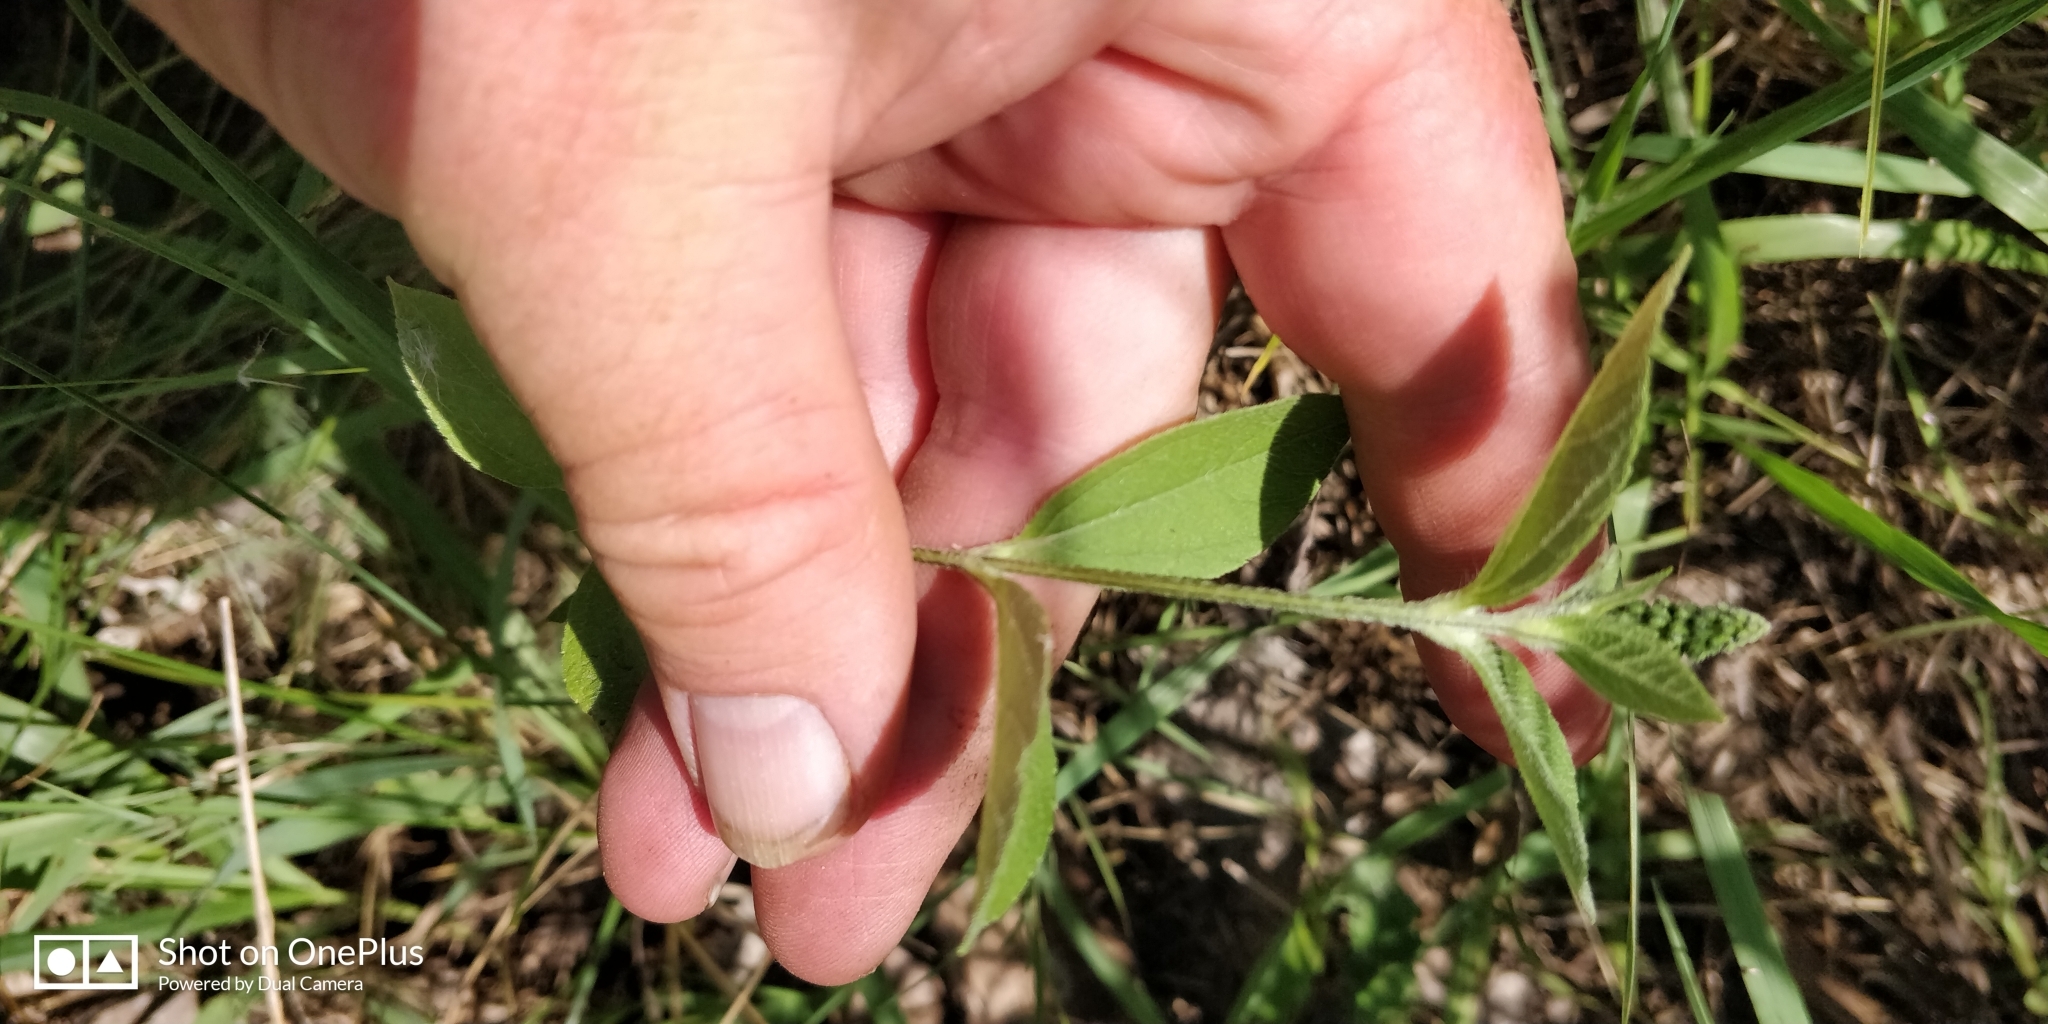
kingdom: Plantae
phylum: Tracheophyta
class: Magnoliopsida
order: Asterales
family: Asteraceae
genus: Ambrosia
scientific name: Ambrosia trifida
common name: Giant ragweed
